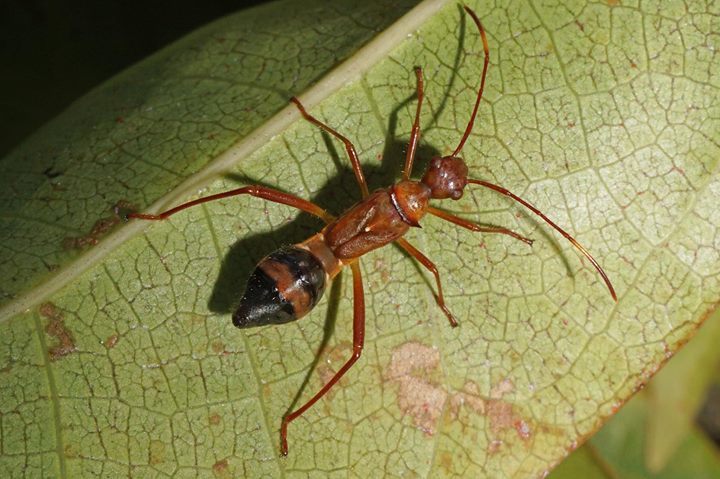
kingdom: Animalia
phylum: Arthropoda
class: Insecta
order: Hemiptera
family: Alydidae
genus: Hyalymenus
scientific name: Hyalymenus tarsatus
